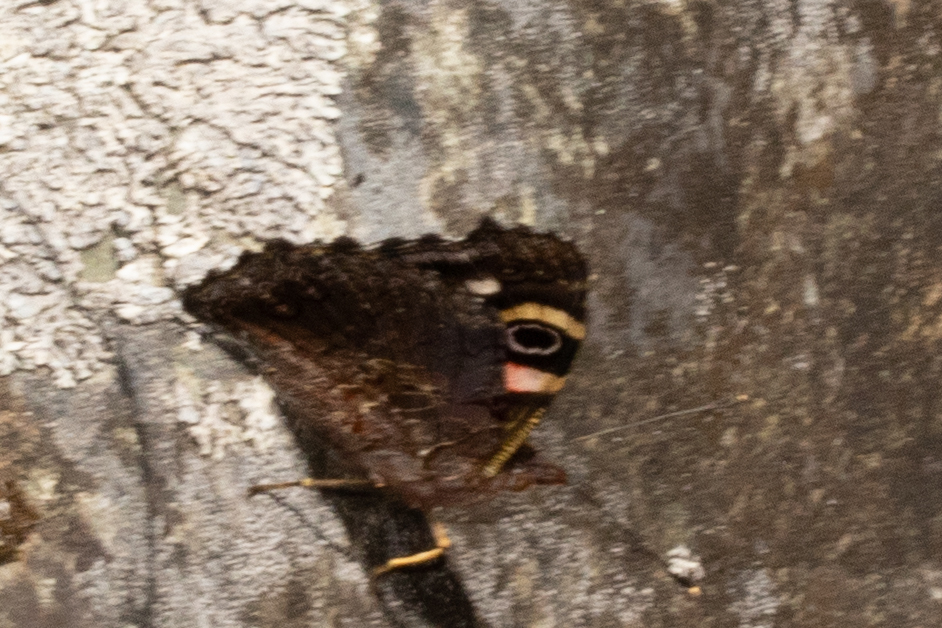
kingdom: Animalia
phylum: Arthropoda
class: Insecta
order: Lepidoptera
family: Nymphalidae
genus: Vanessa
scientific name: Vanessa gonerilla
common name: New zealand red admiral
